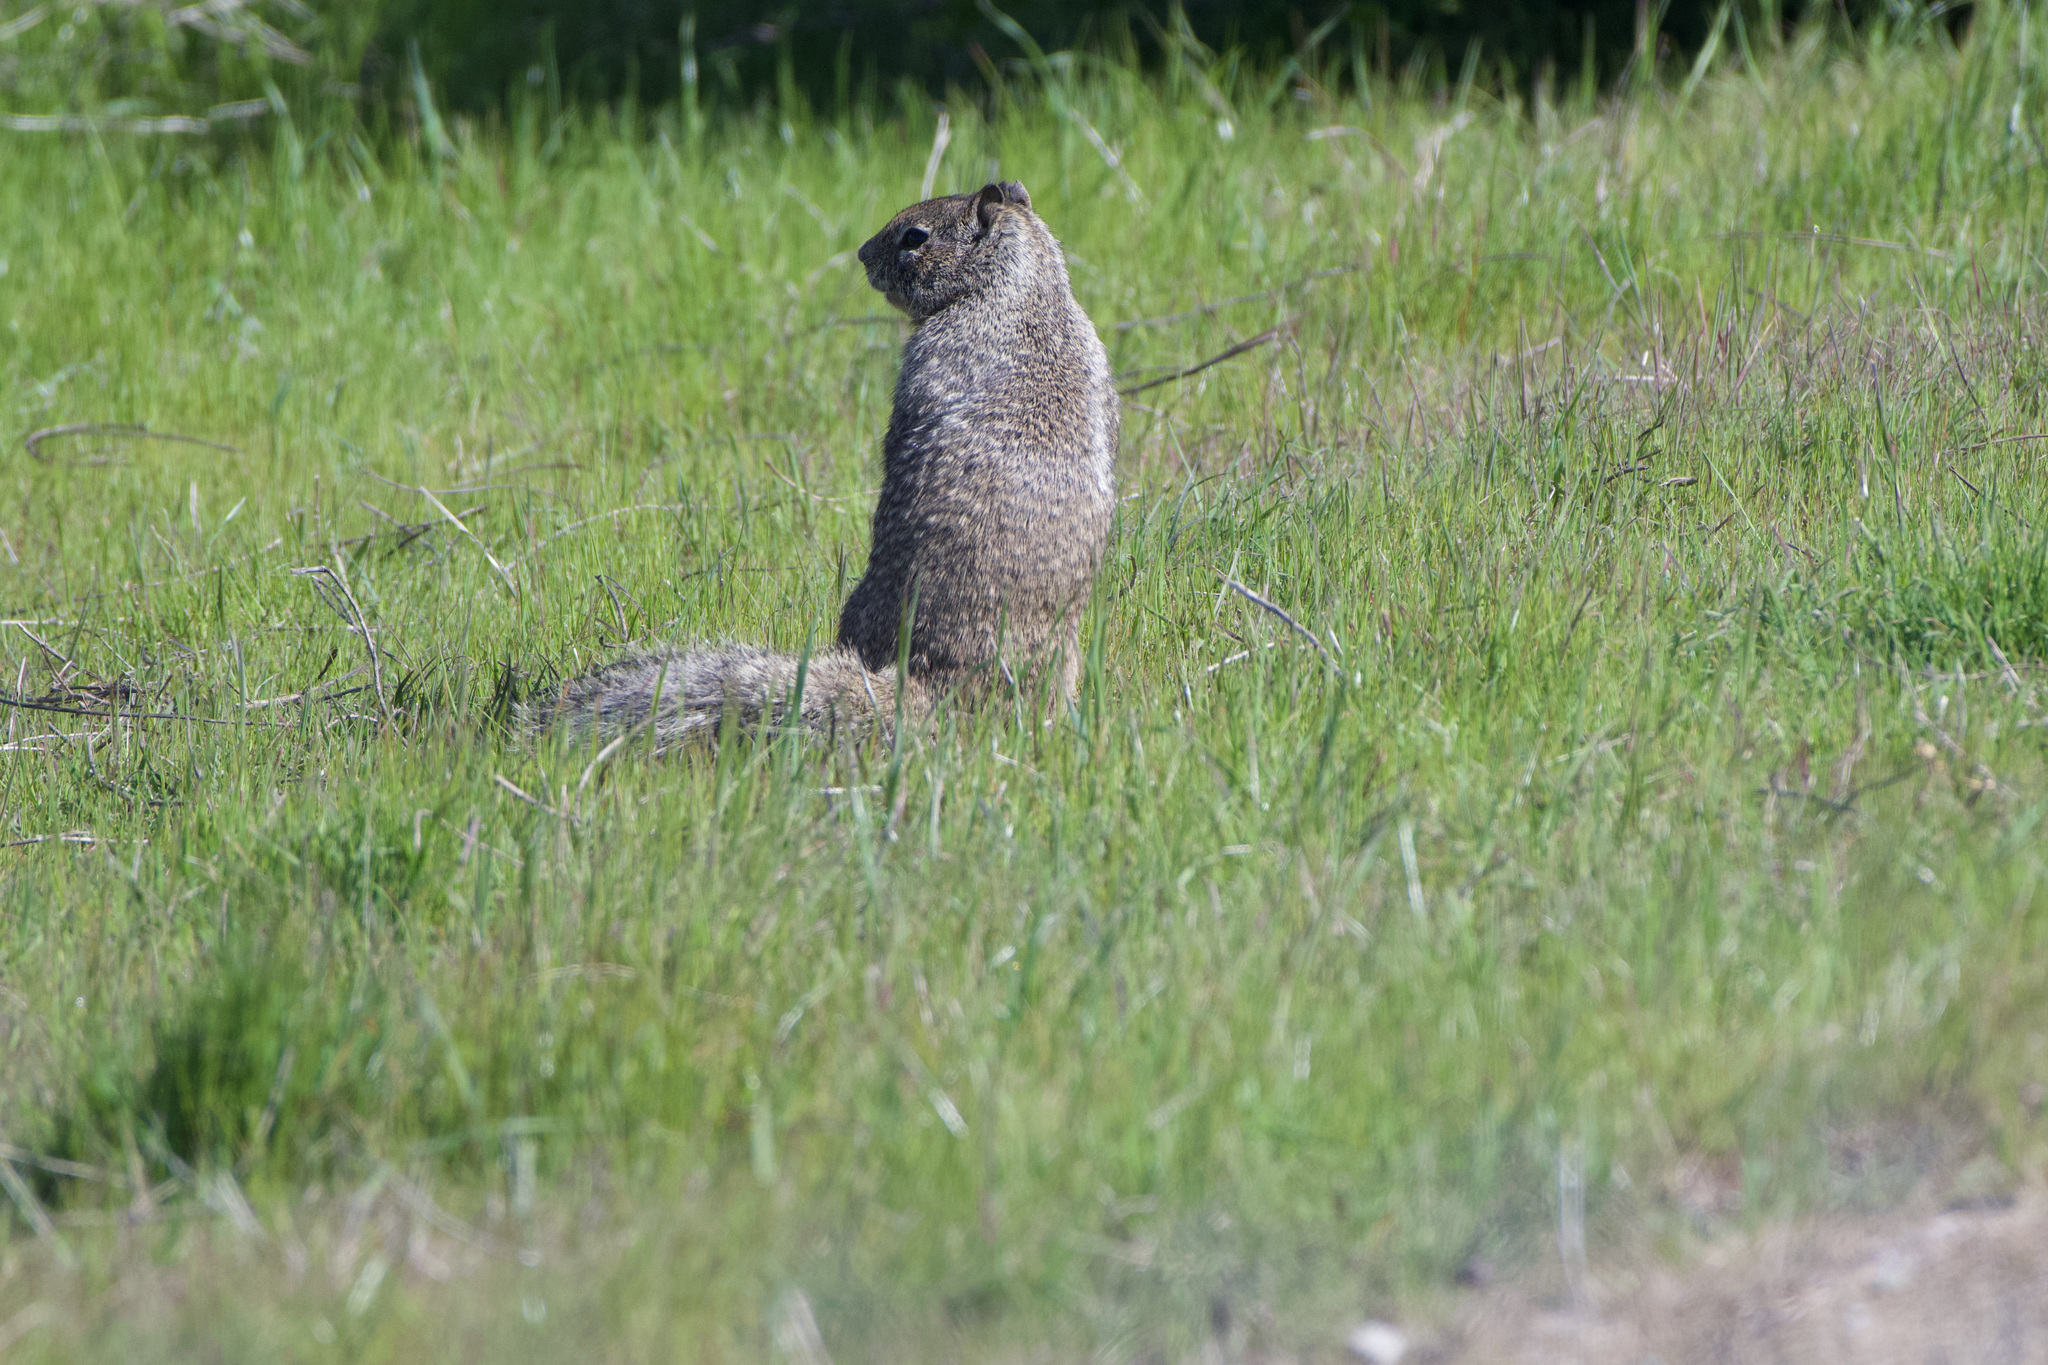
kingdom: Animalia
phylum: Chordata
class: Mammalia
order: Rodentia
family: Sciuridae
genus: Otospermophilus
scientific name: Otospermophilus beecheyi
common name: California ground squirrel
